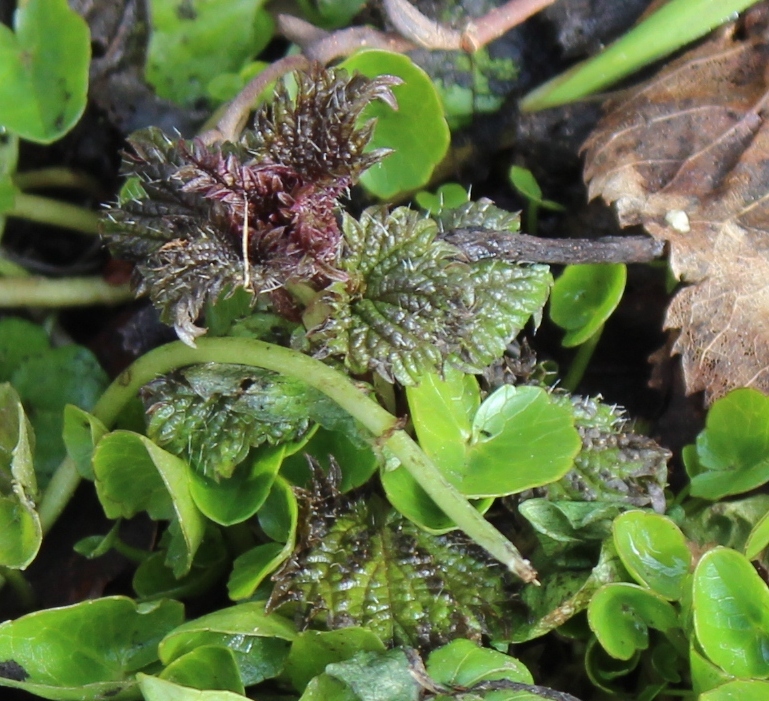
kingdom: Plantae
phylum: Tracheophyta
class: Magnoliopsida
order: Rosales
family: Urticaceae
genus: Urtica
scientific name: Urtica dioica
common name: Common nettle
